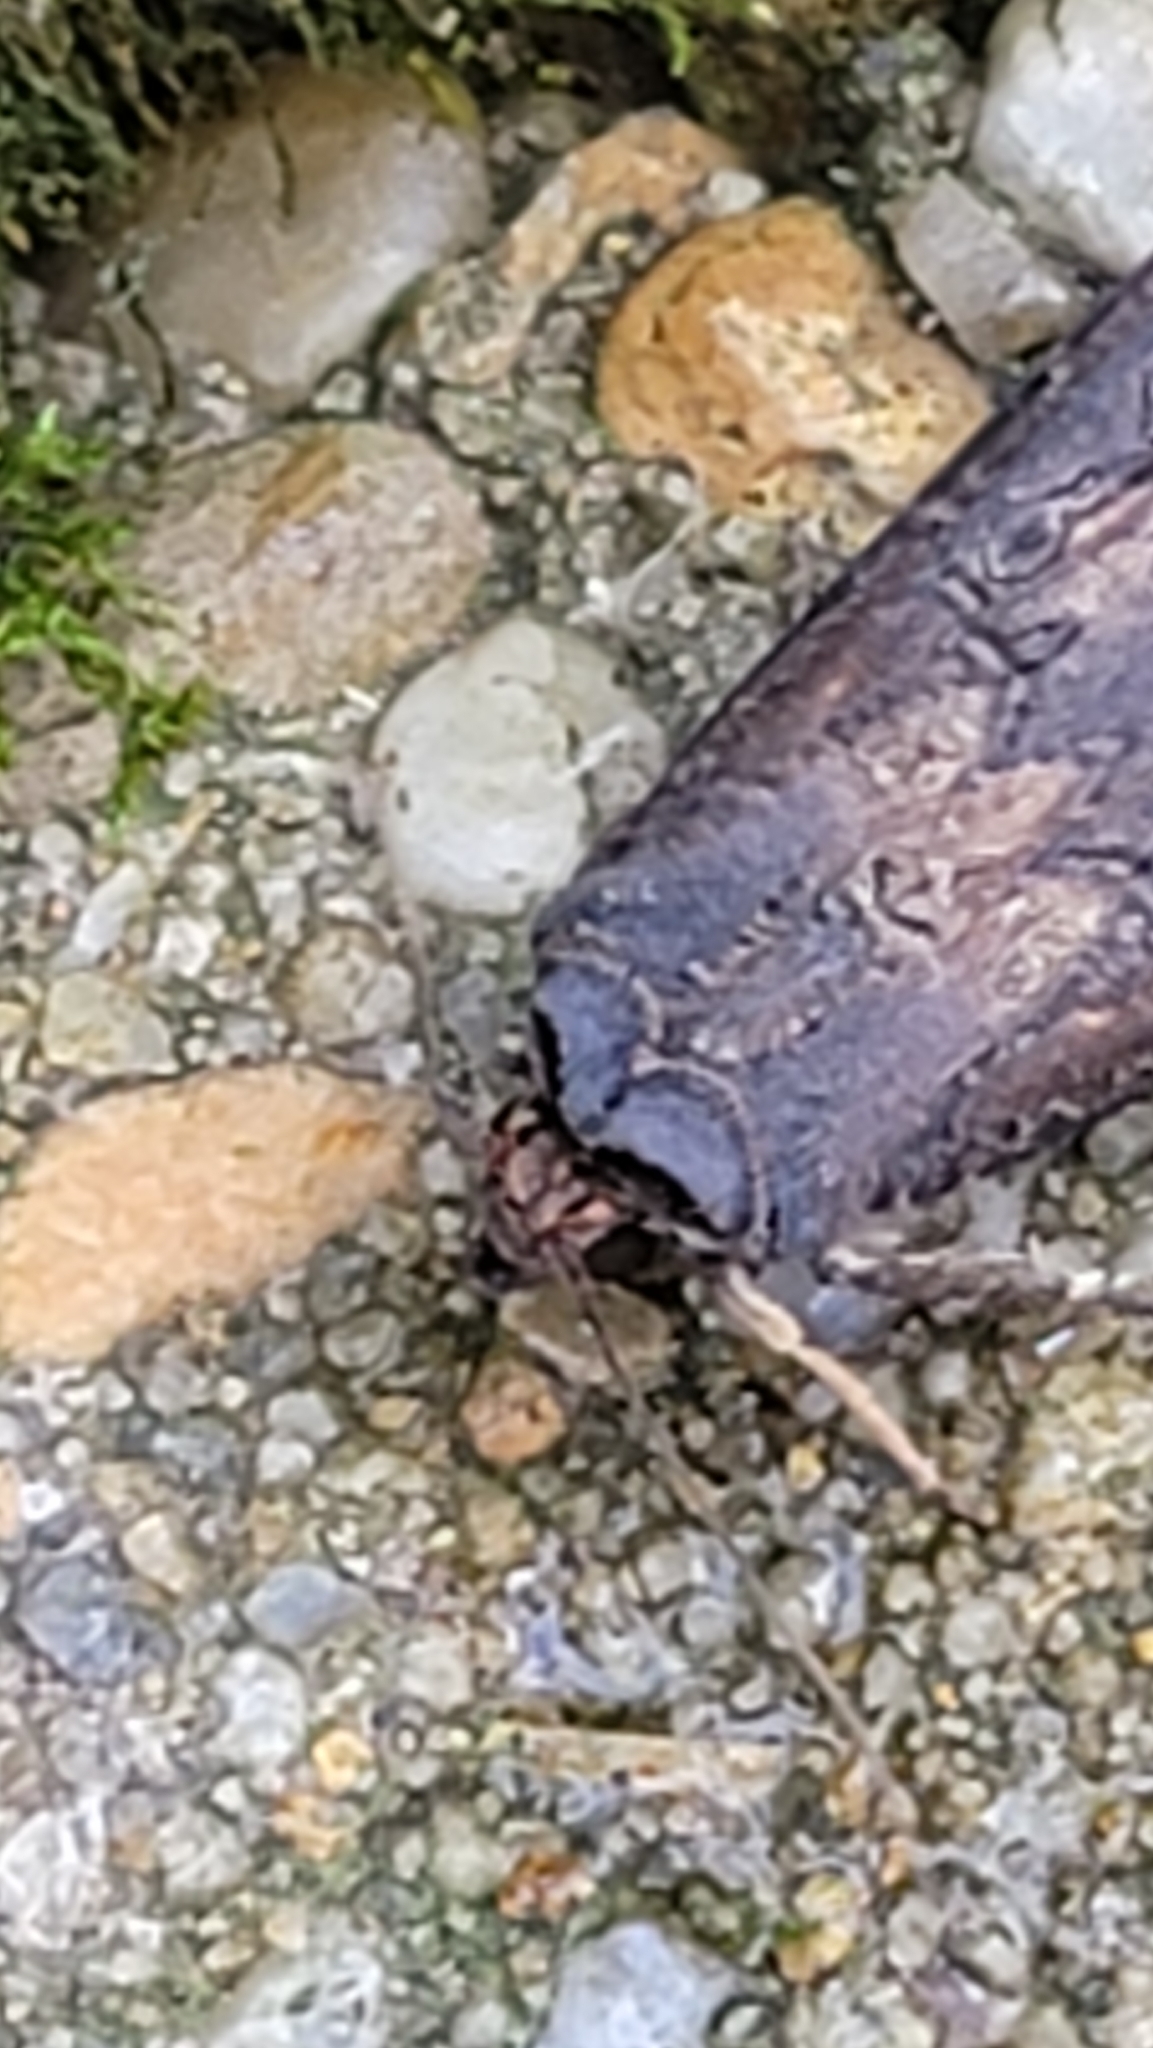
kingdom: Animalia
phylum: Arthropoda
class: Insecta
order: Lepidoptera
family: Noctuidae
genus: Agrotis
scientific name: Agrotis ipsilon
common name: Dark sword-grass
